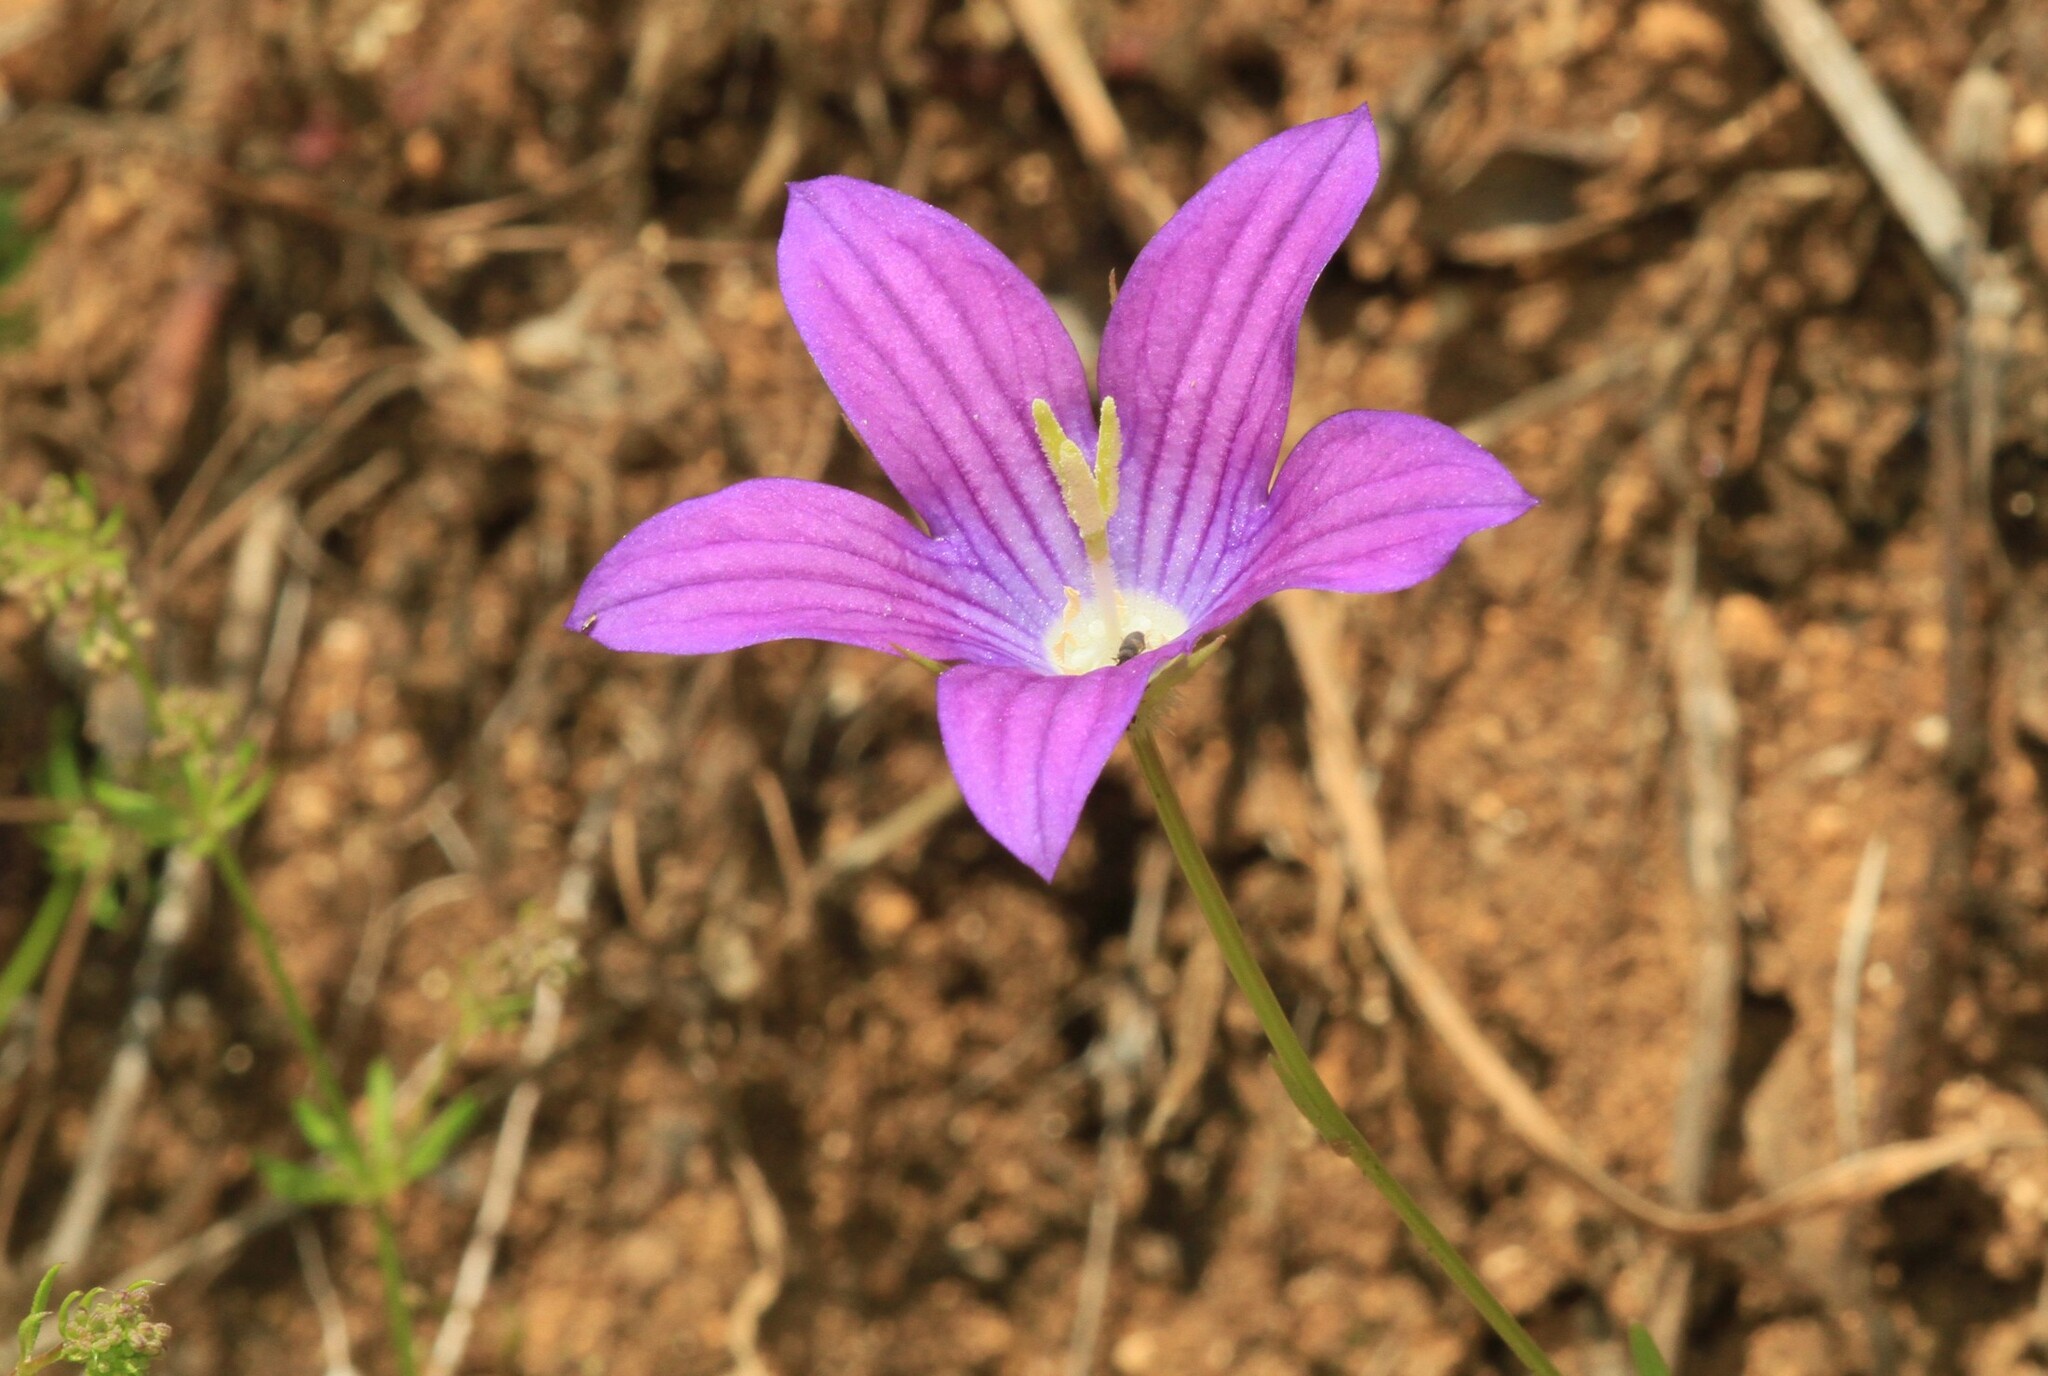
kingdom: Plantae
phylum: Tracheophyta
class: Magnoliopsida
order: Asterales
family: Campanulaceae
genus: Campanula
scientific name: Campanula ramosissima
